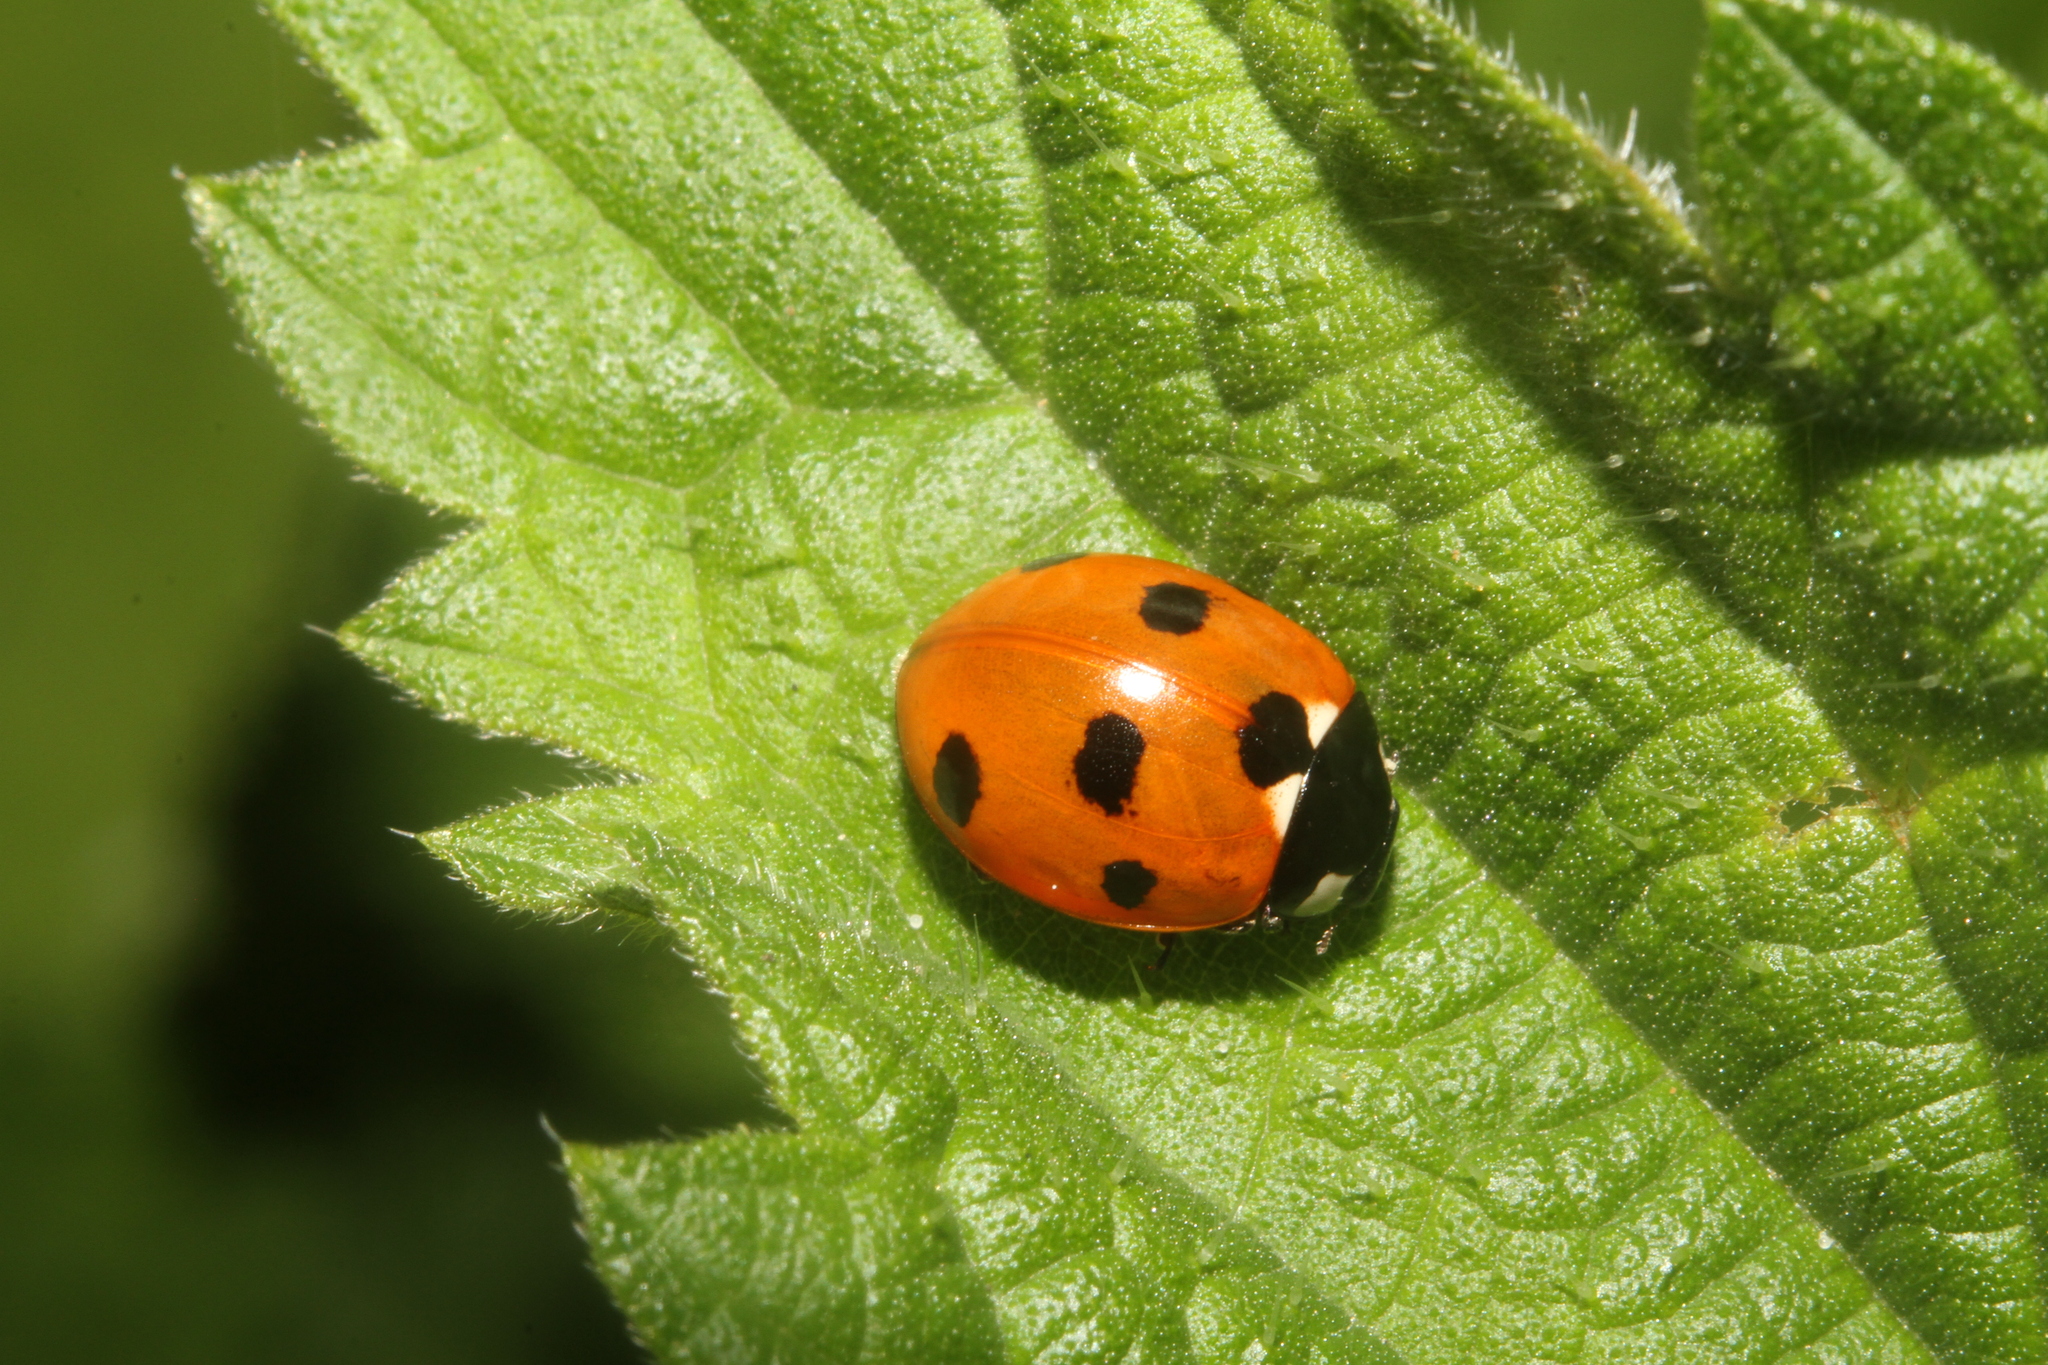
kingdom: Animalia
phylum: Arthropoda
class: Insecta
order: Coleoptera
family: Coccinellidae
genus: Coccinella
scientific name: Coccinella septempunctata
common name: Sevenspotted lady beetle
